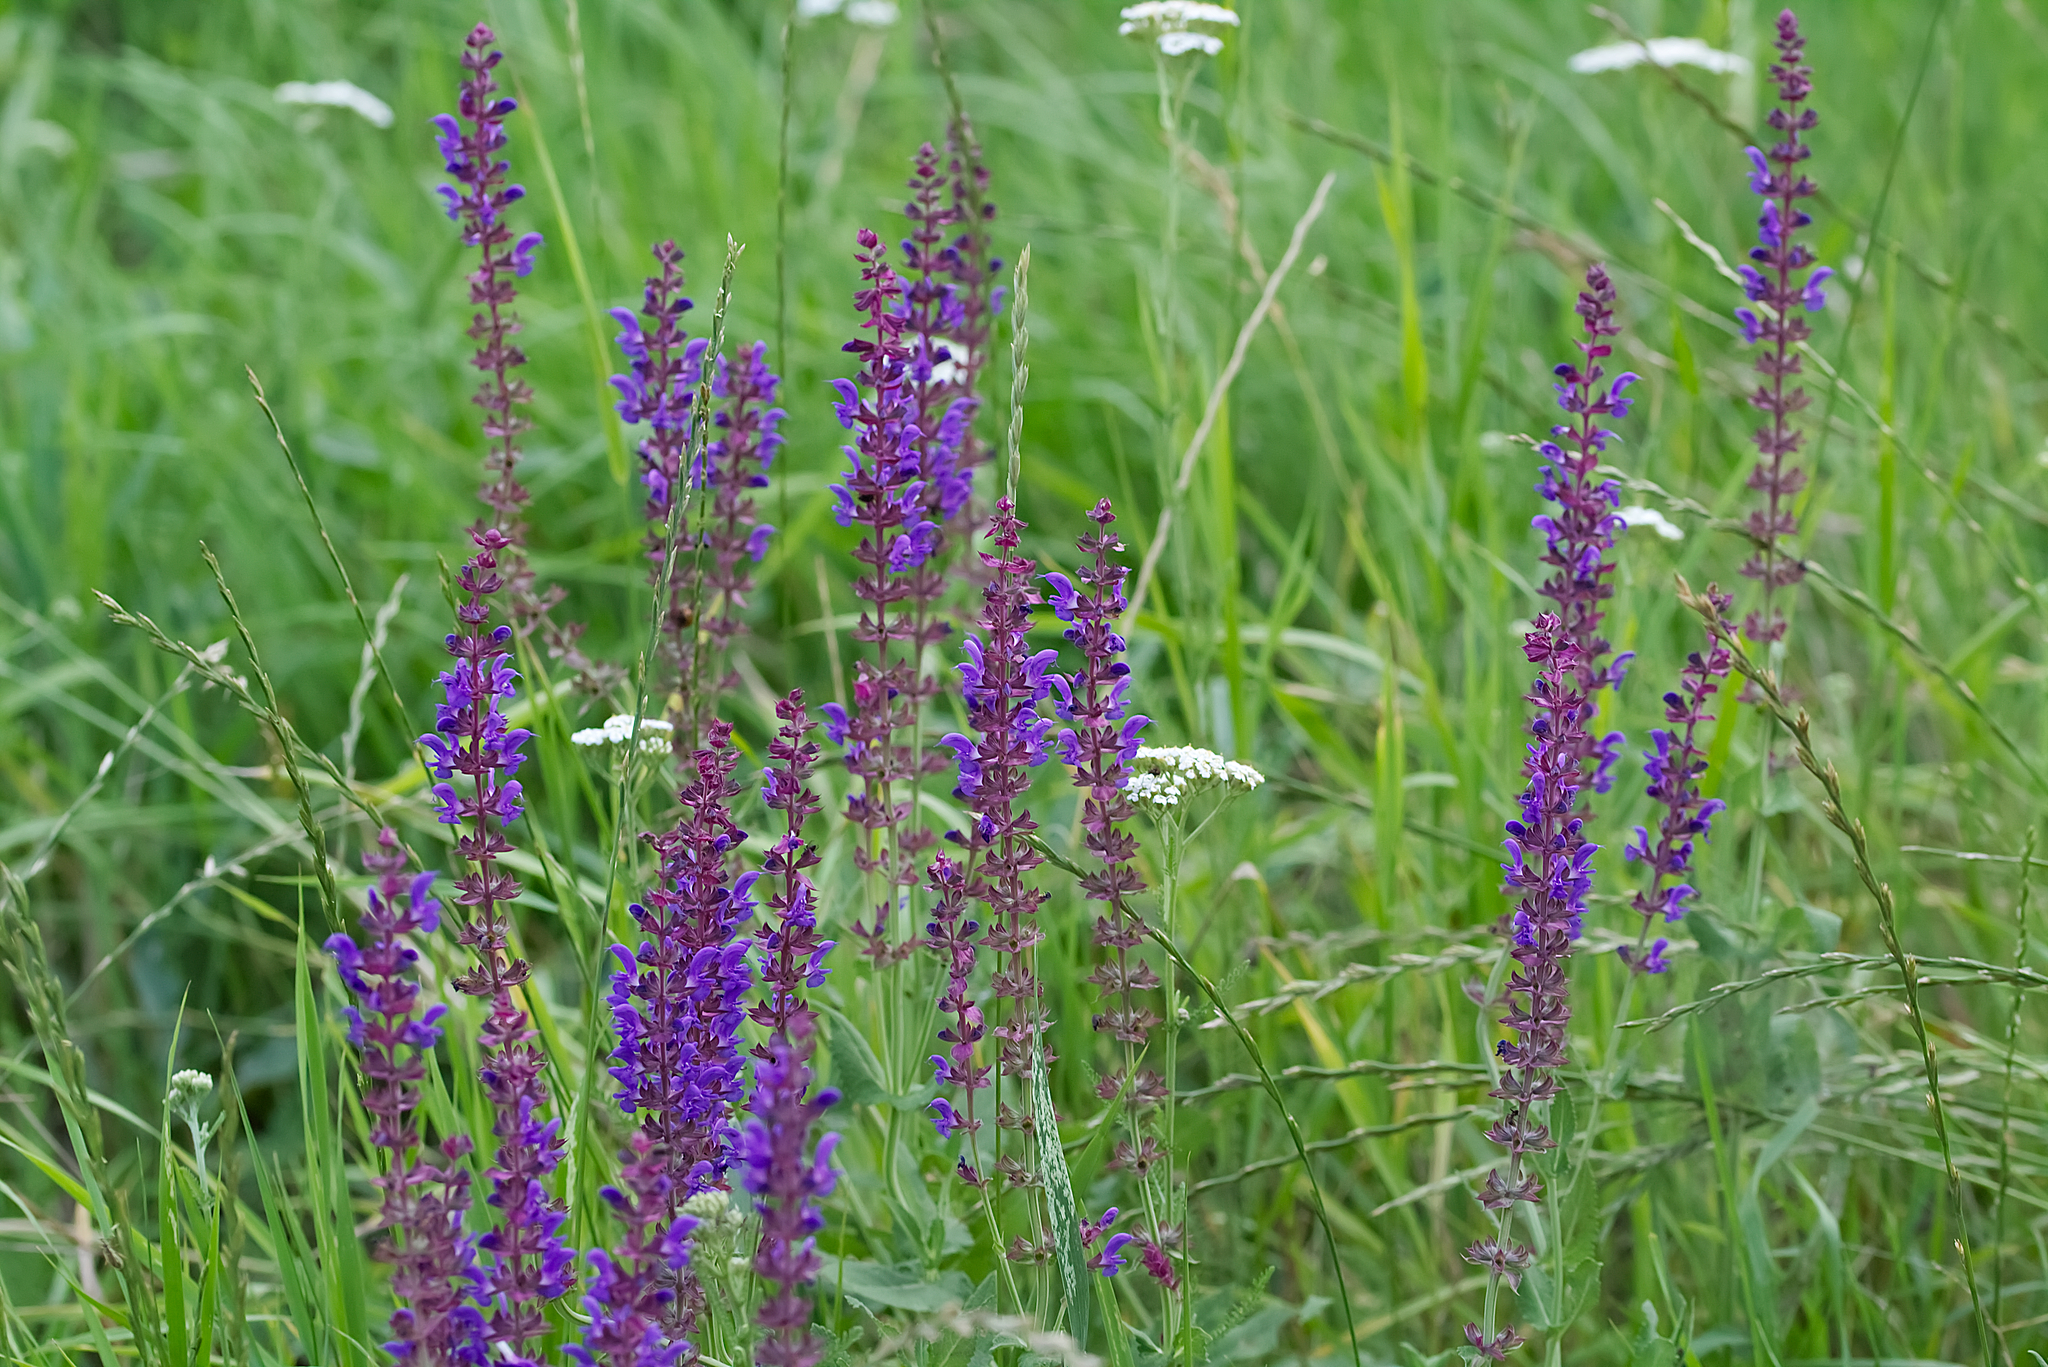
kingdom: Plantae
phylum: Tracheophyta
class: Magnoliopsida
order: Lamiales
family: Lamiaceae
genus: Salvia
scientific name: Salvia nemorosa
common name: Balkan clary
